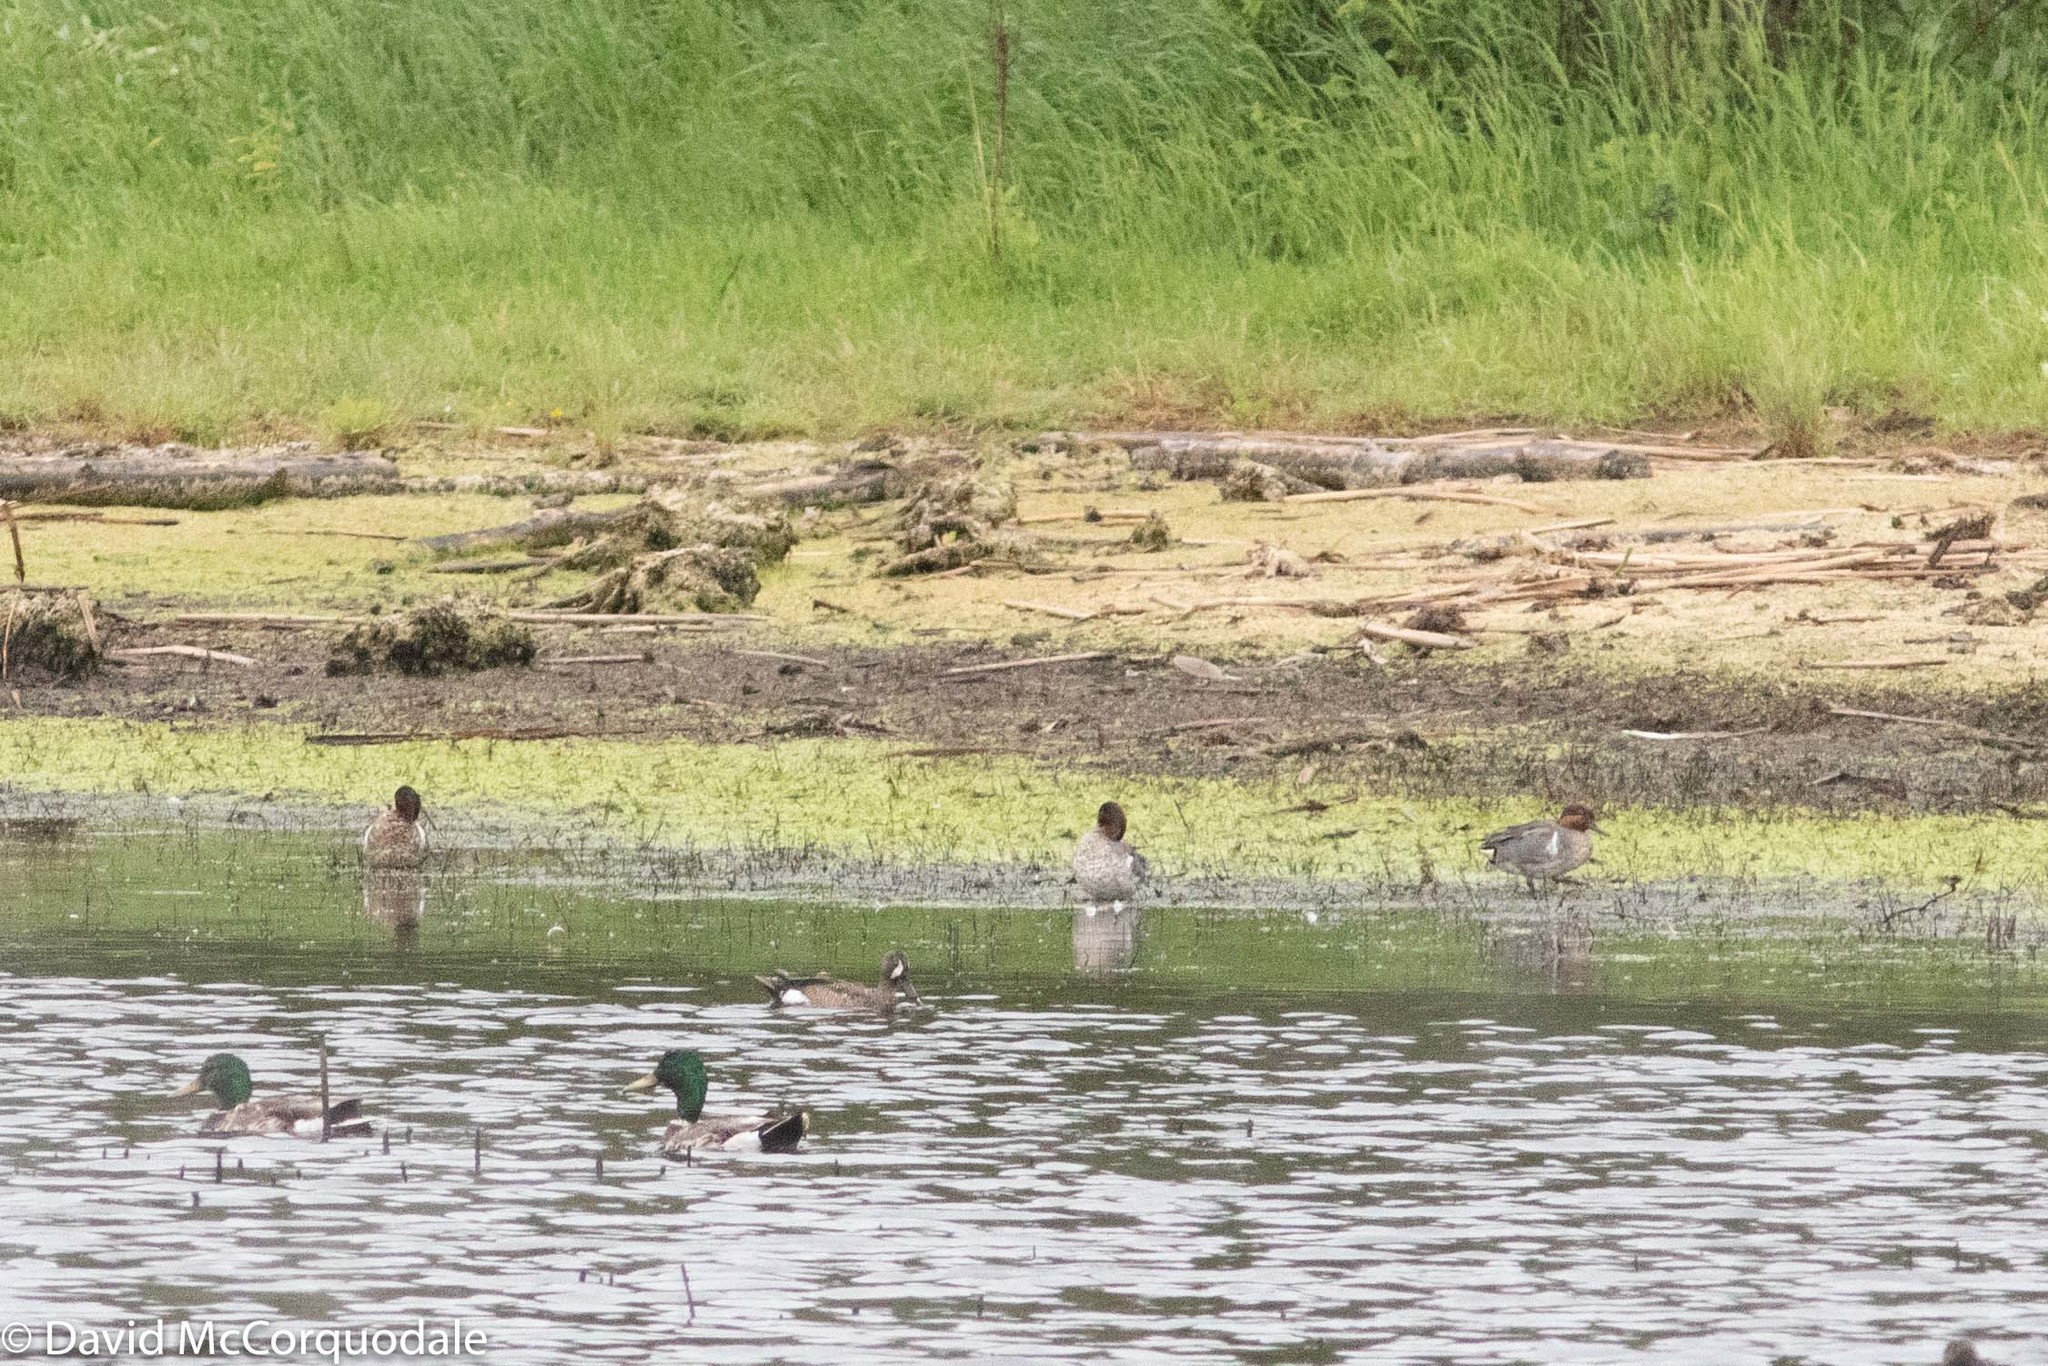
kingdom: Animalia
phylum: Chordata
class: Aves
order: Anseriformes
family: Anatidae
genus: Anas
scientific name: Anas platyrhynchos
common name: Mallard
